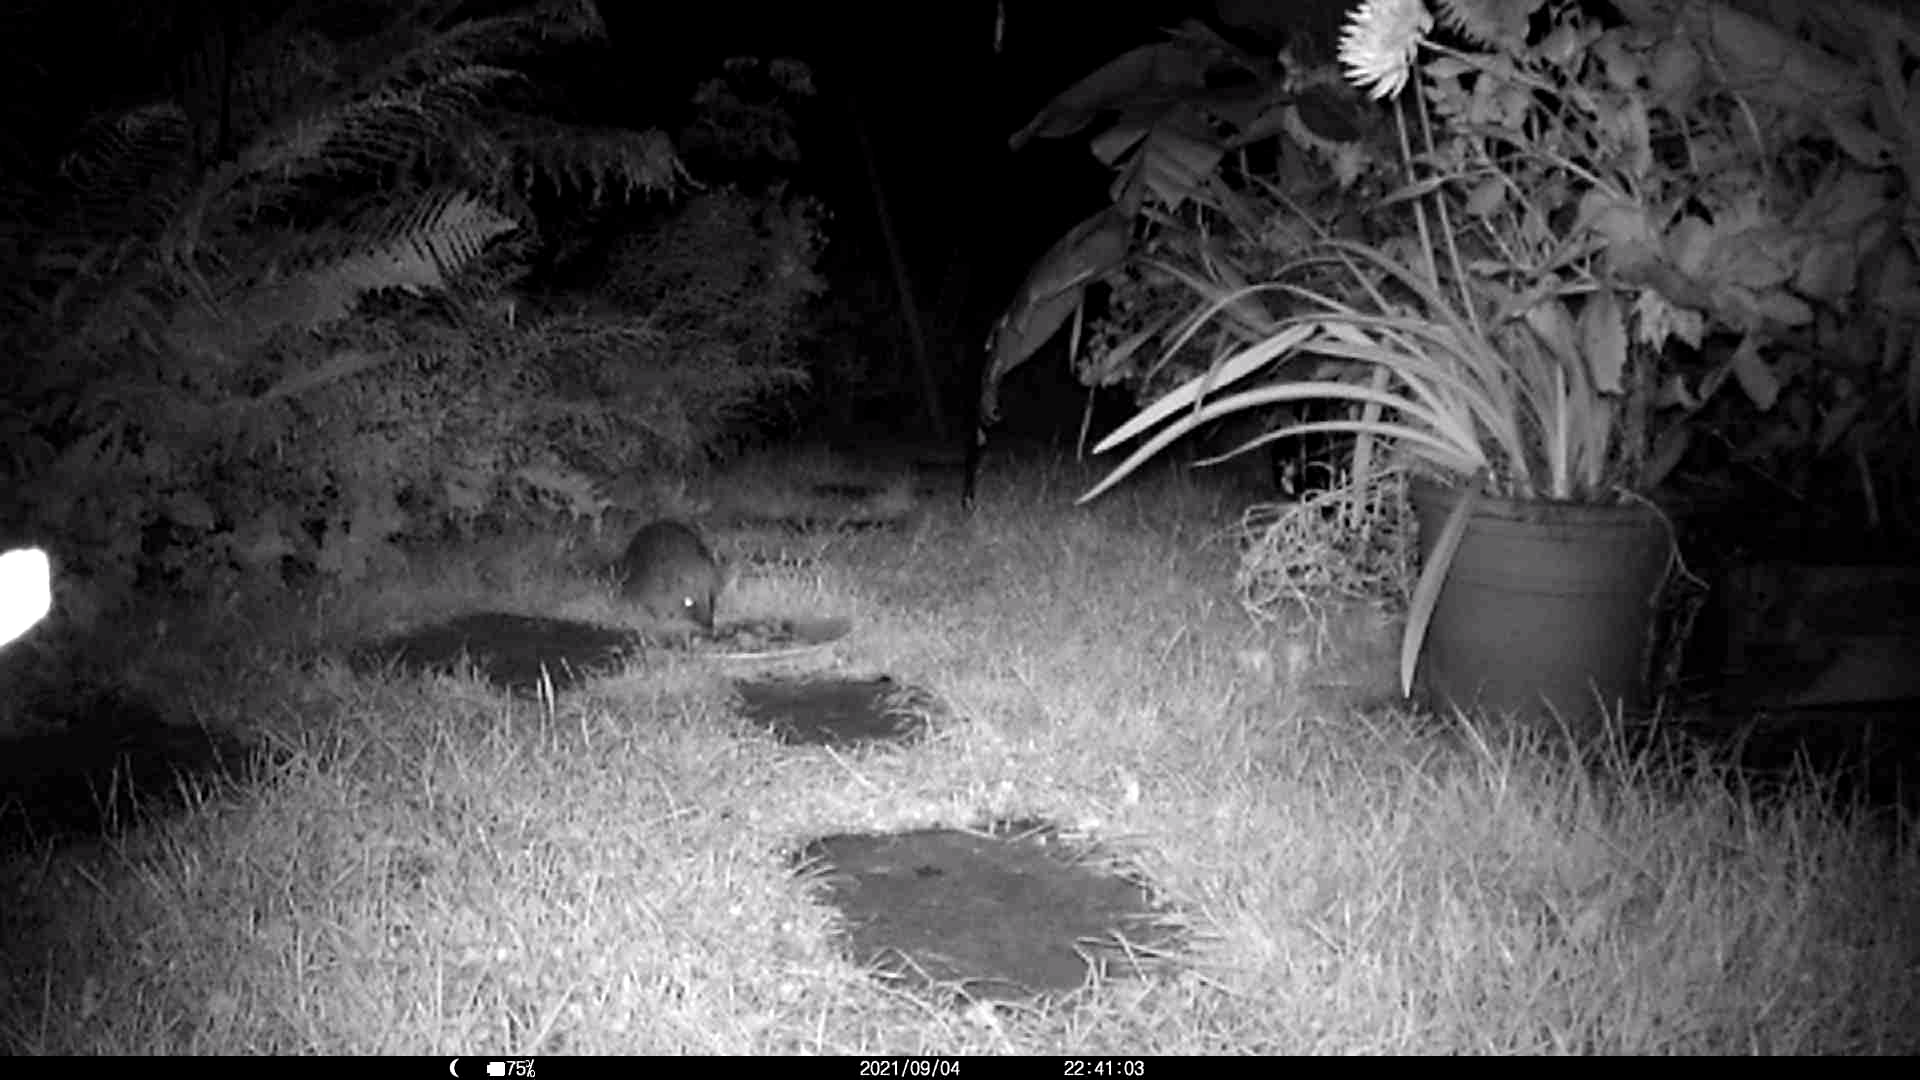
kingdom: Animalia
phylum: Chordata
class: Mammalia
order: Erinaceomorpha
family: Erinaceidae
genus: Erinaceus
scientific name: Erinaceus europaeus
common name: West european hedgehog
